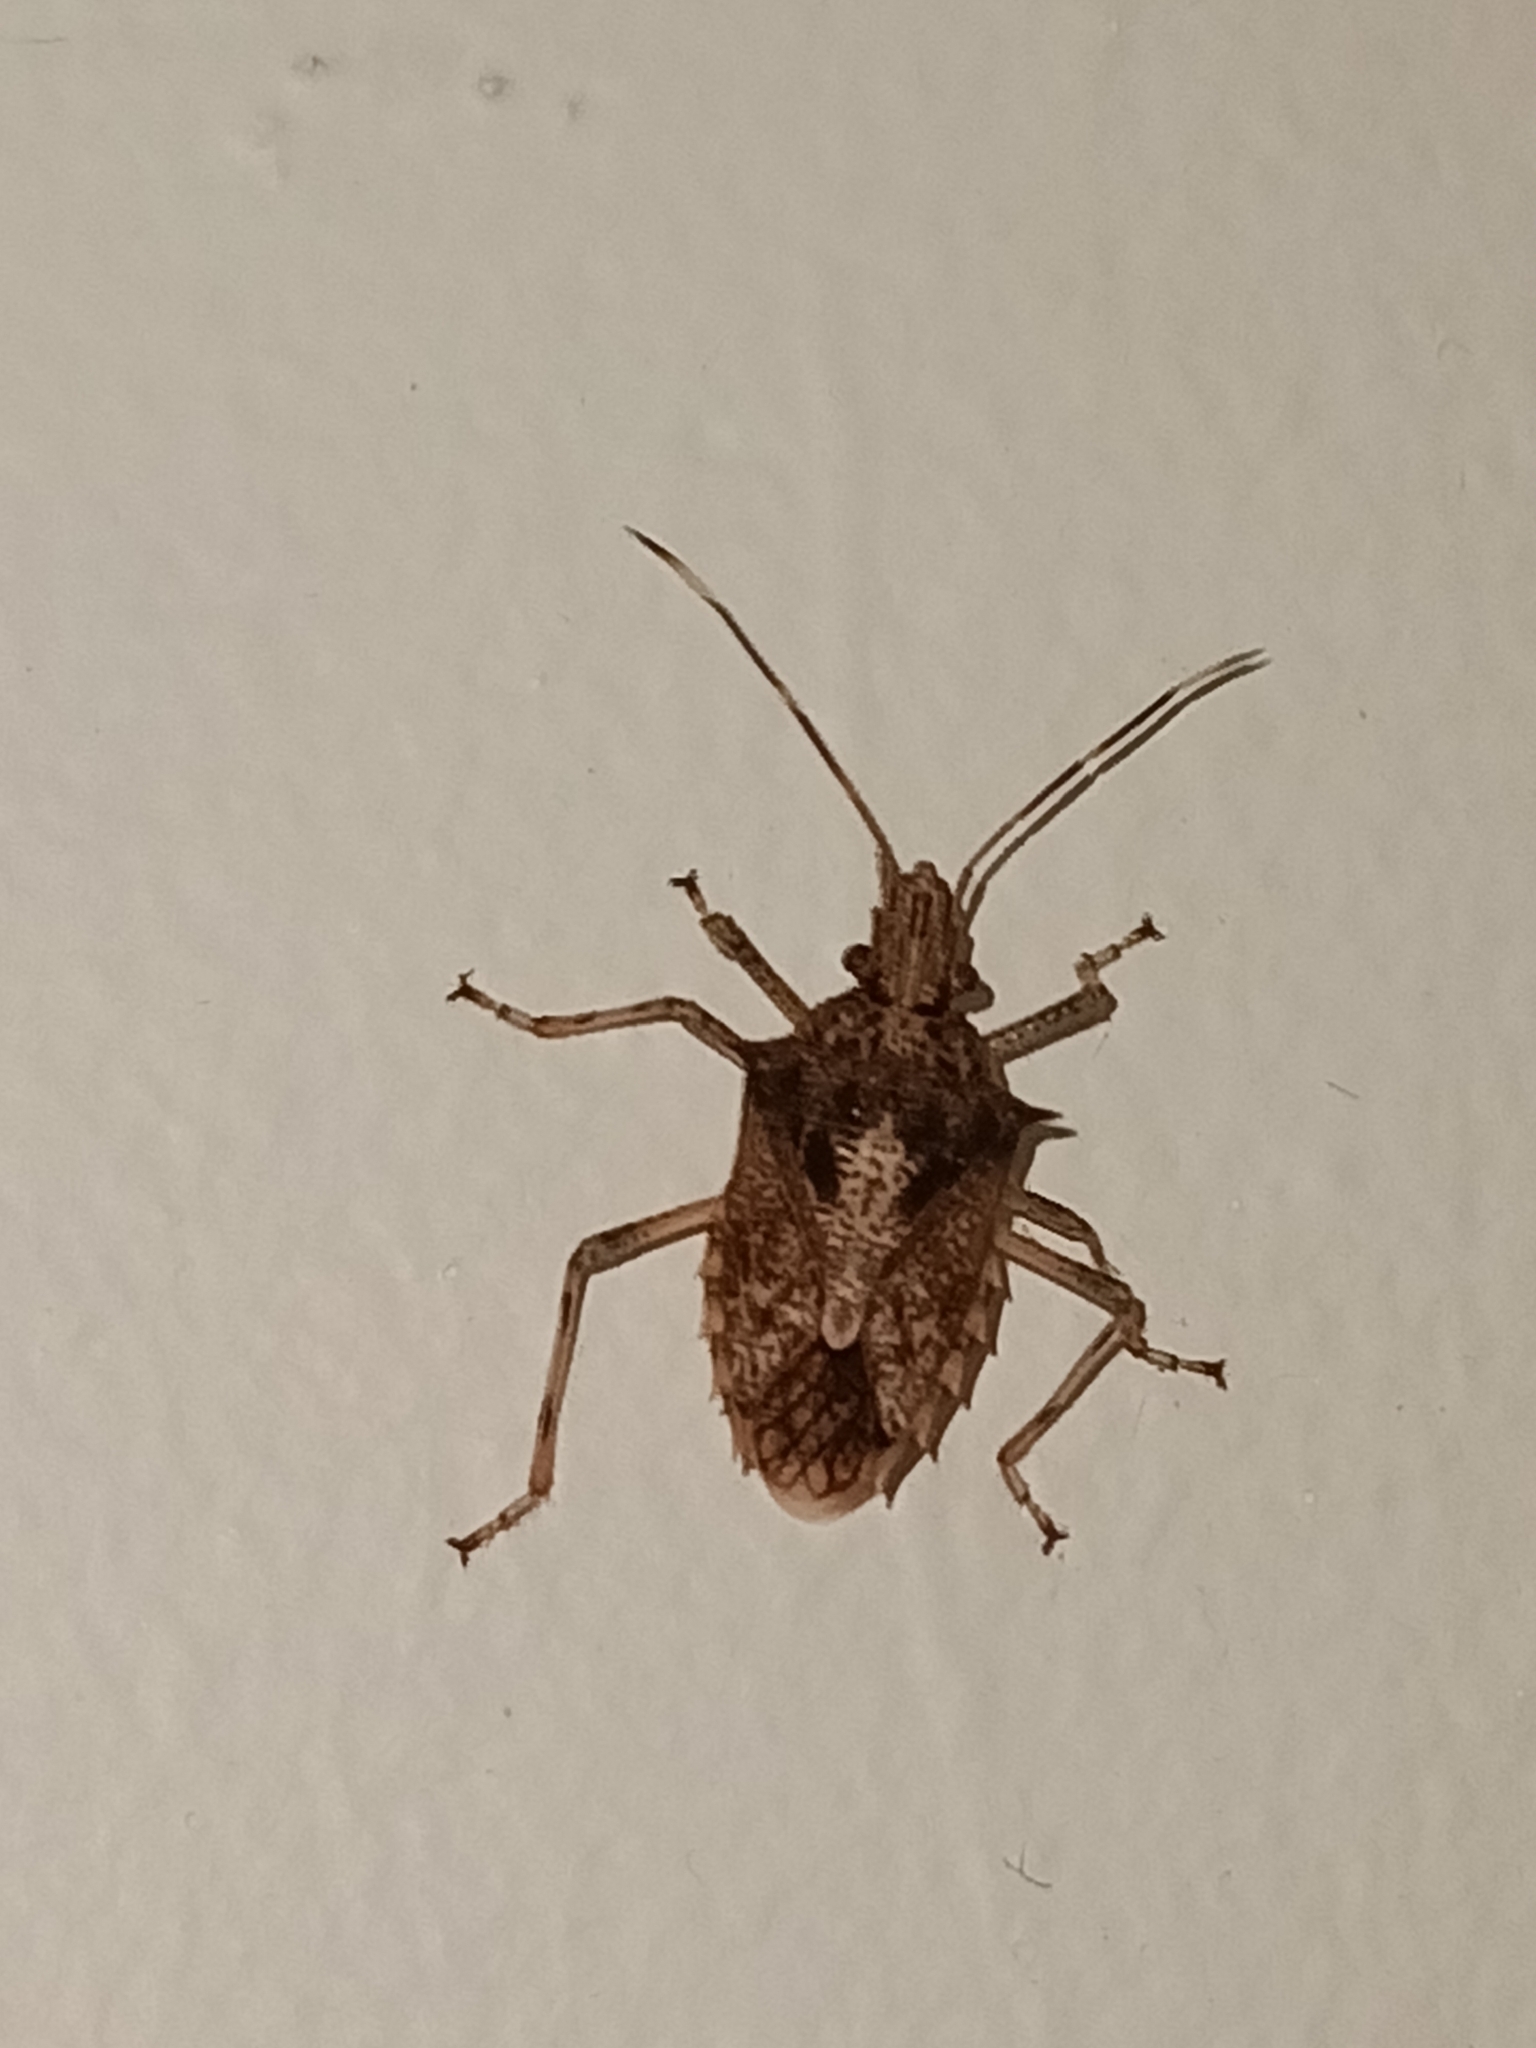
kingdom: Animalia
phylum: Arthropoda
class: Insecta
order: Hemiptera
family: Pentatomidae
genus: Bromocoris
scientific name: Bromocoris
